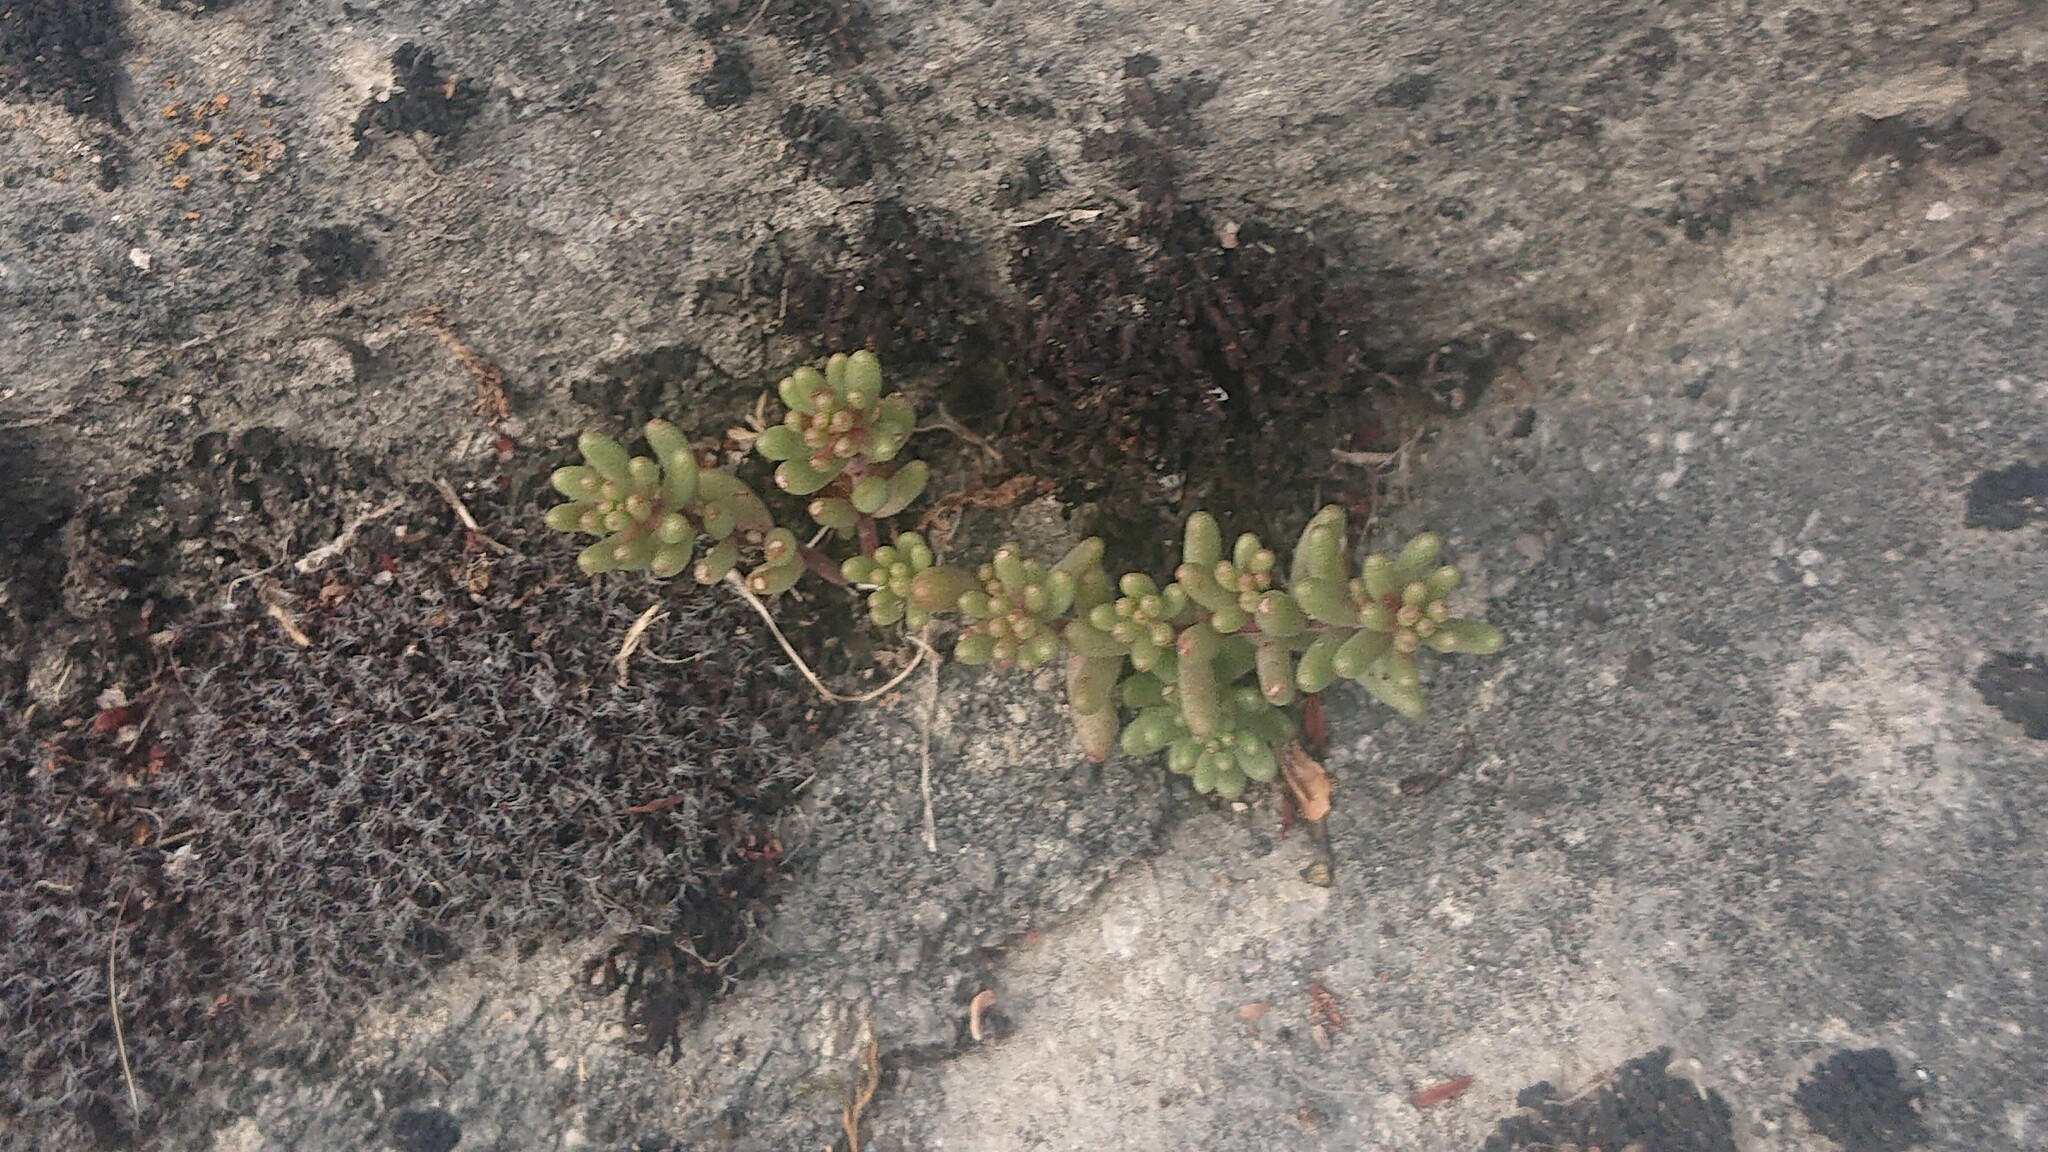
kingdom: Plantae
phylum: Tracheophyta
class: Magnoliopsida
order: Saxifragales
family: Crassulaceae
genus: Sedum
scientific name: Sedum album
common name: White stonecrop
